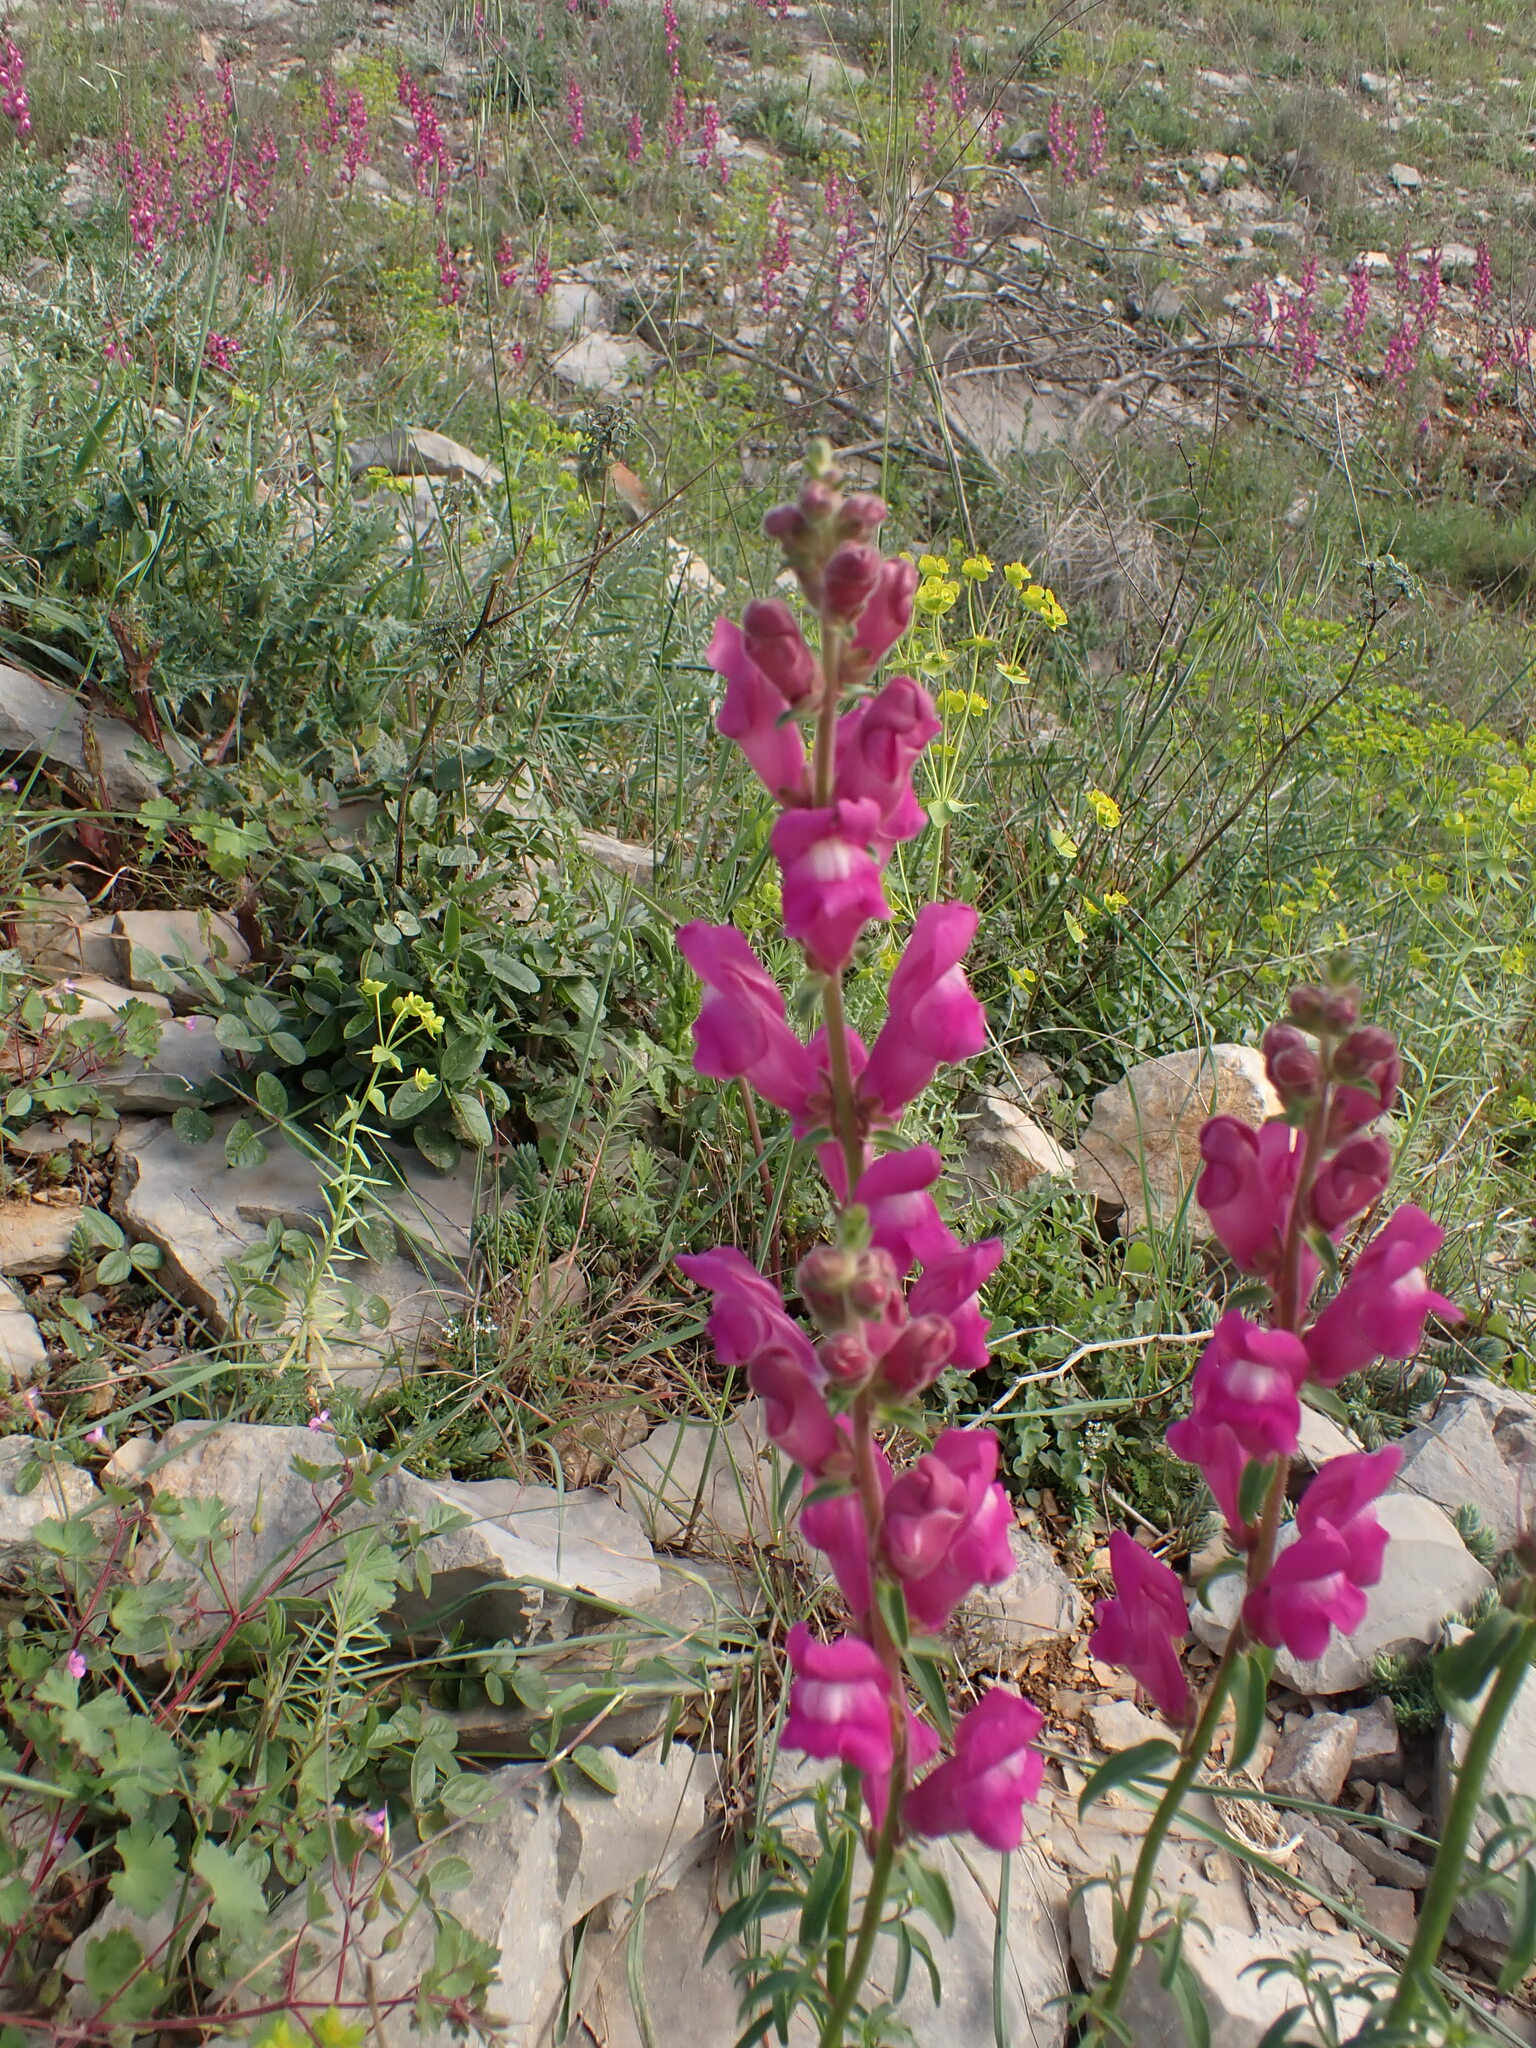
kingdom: Plantae
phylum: Tracheophyta
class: Magnoliopsida
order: Lamiales
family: Plantaginaceae
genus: Antirrhinum
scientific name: Antirrhinum majus
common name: Snapdragon
